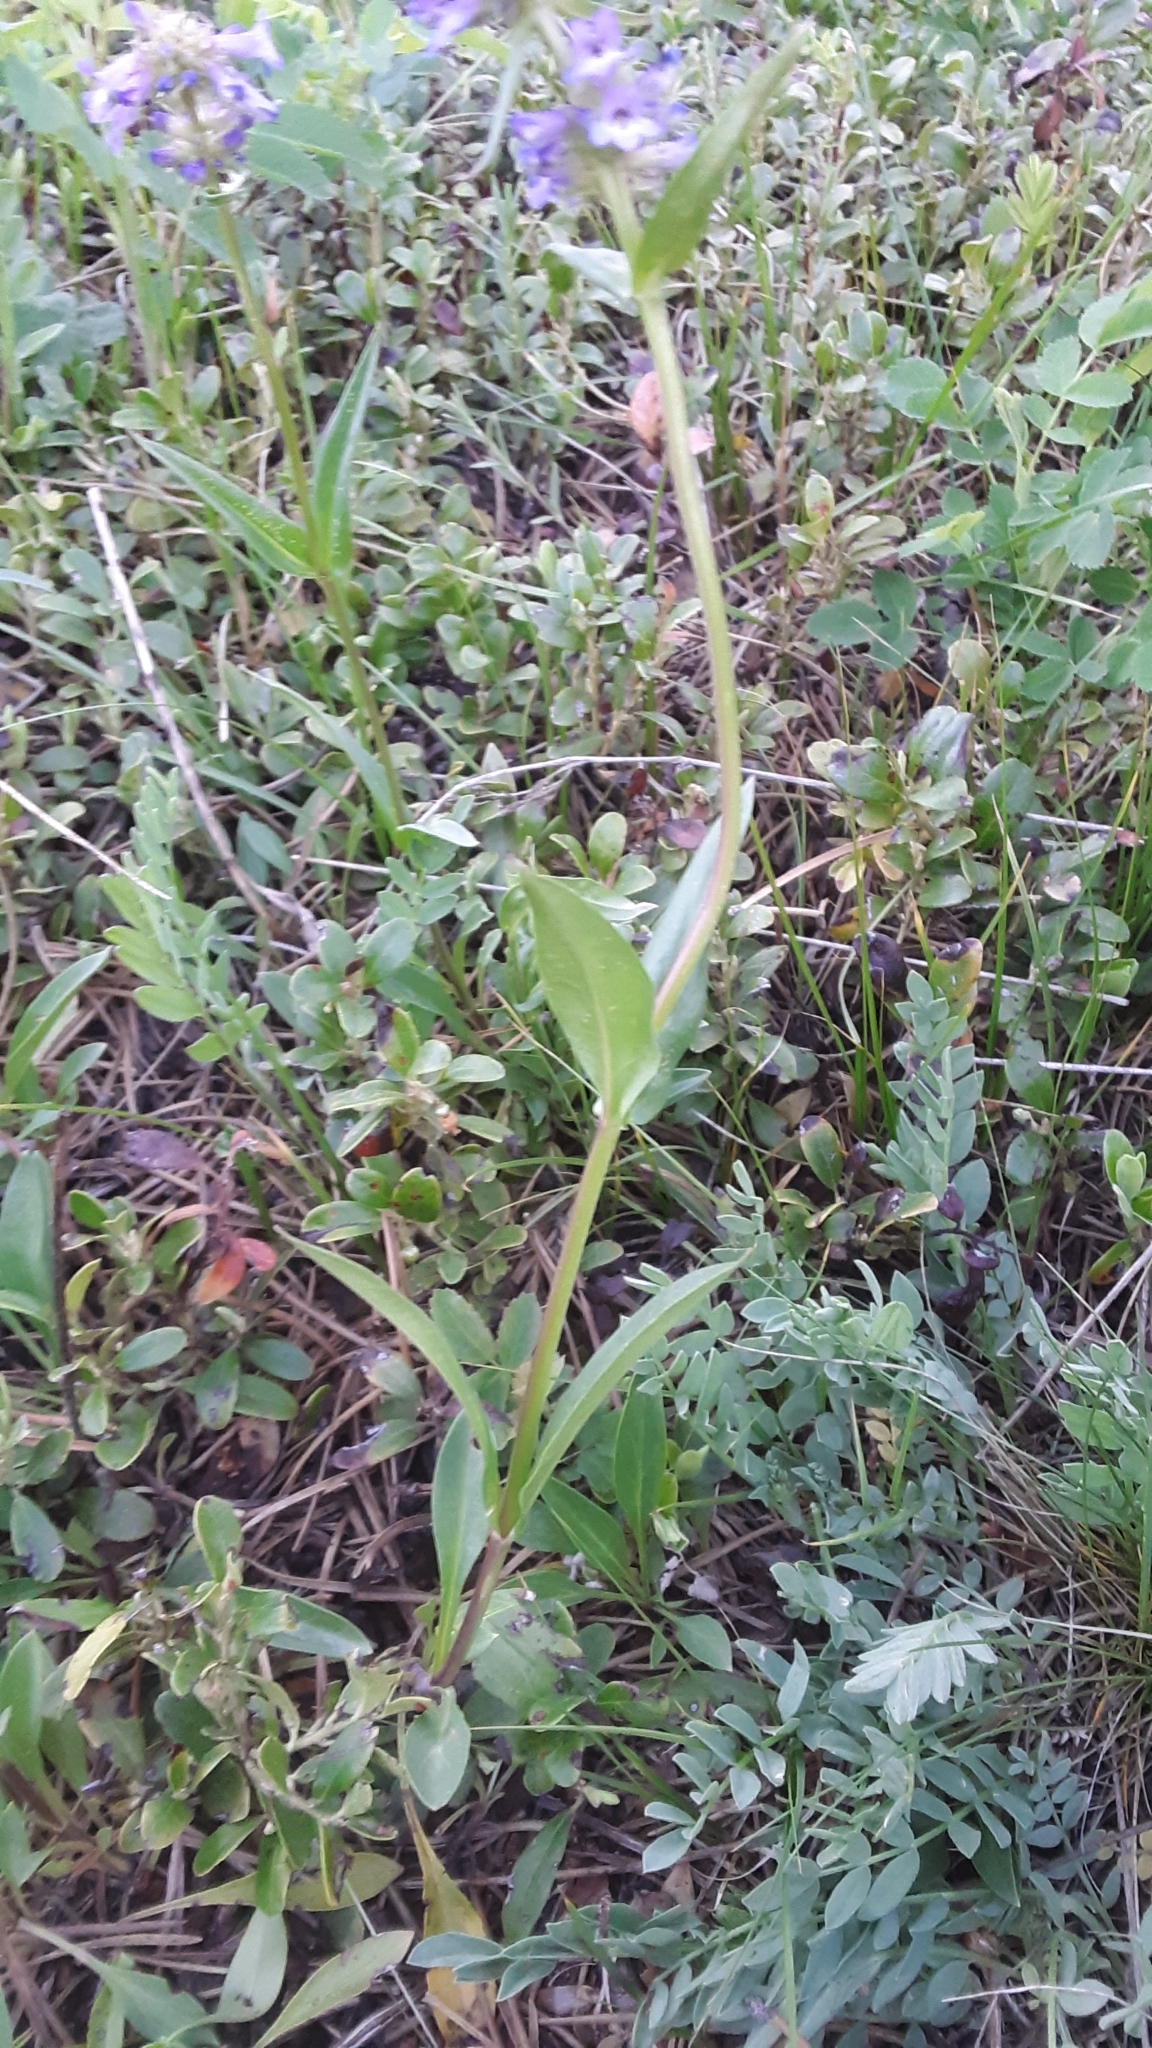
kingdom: Plantae
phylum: Tracheophyta
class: Magnoliopsida
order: Lamiales
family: Plantaginaceae
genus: Penstemon
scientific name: Penstemon procerus
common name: Small-flower penstemon
